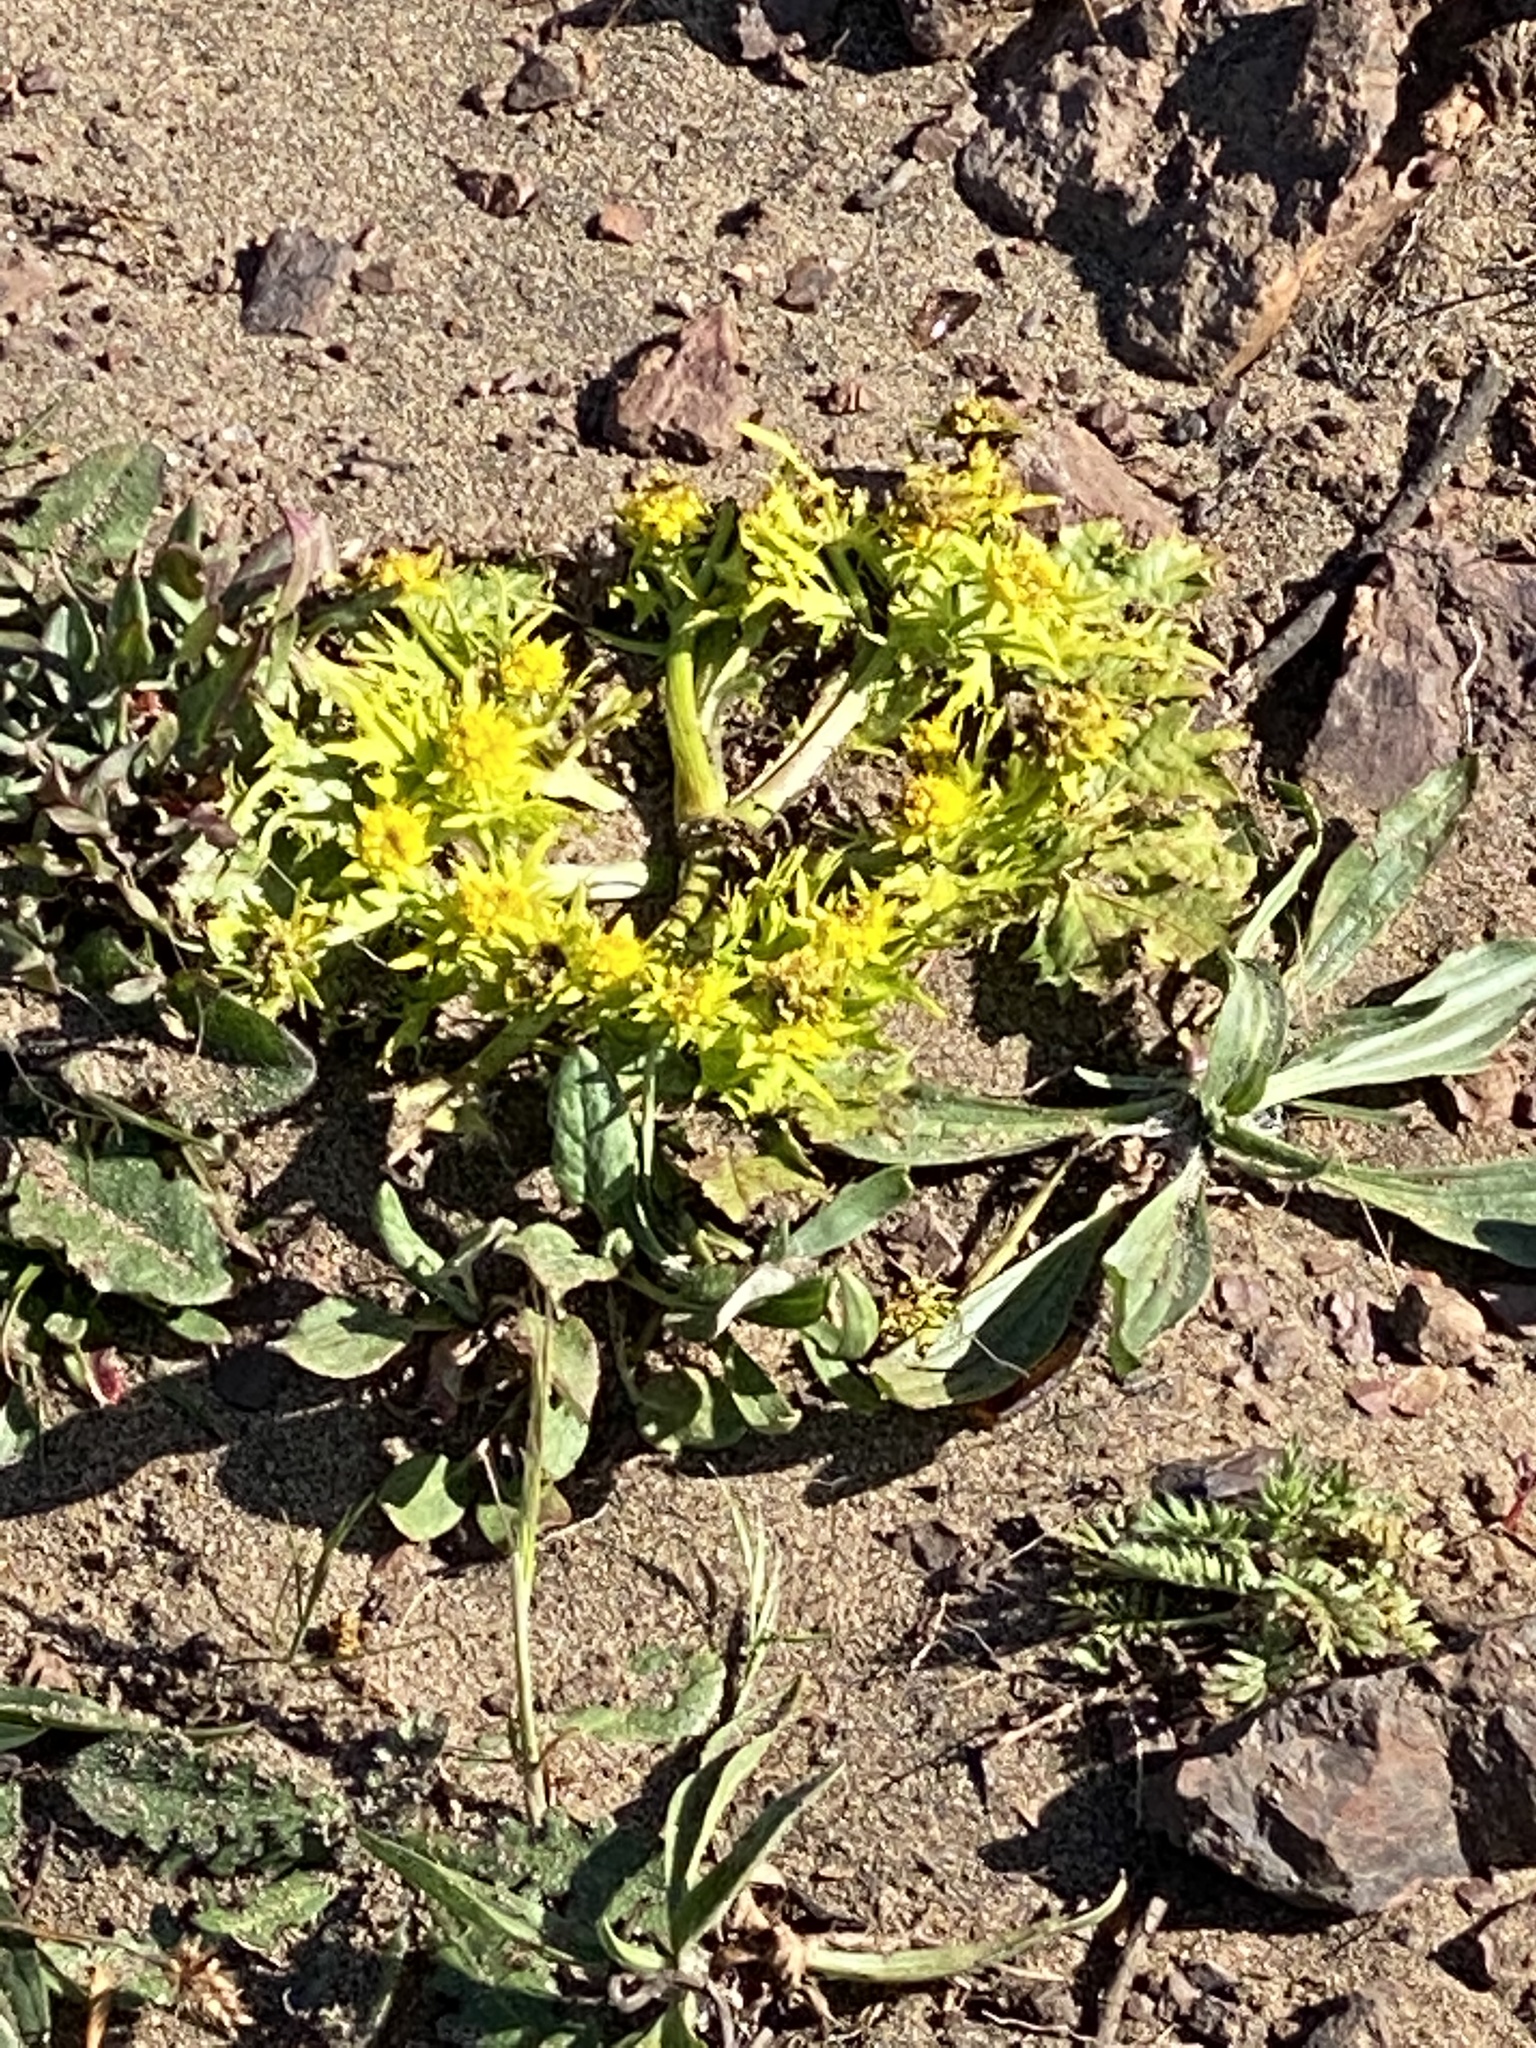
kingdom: Plantae
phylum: Tracheophyta
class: Magnoliopsida
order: Apiales
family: Apiaceae
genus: Sanicula
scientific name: Sanicula arctopoides
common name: Footsteps-of-spring
